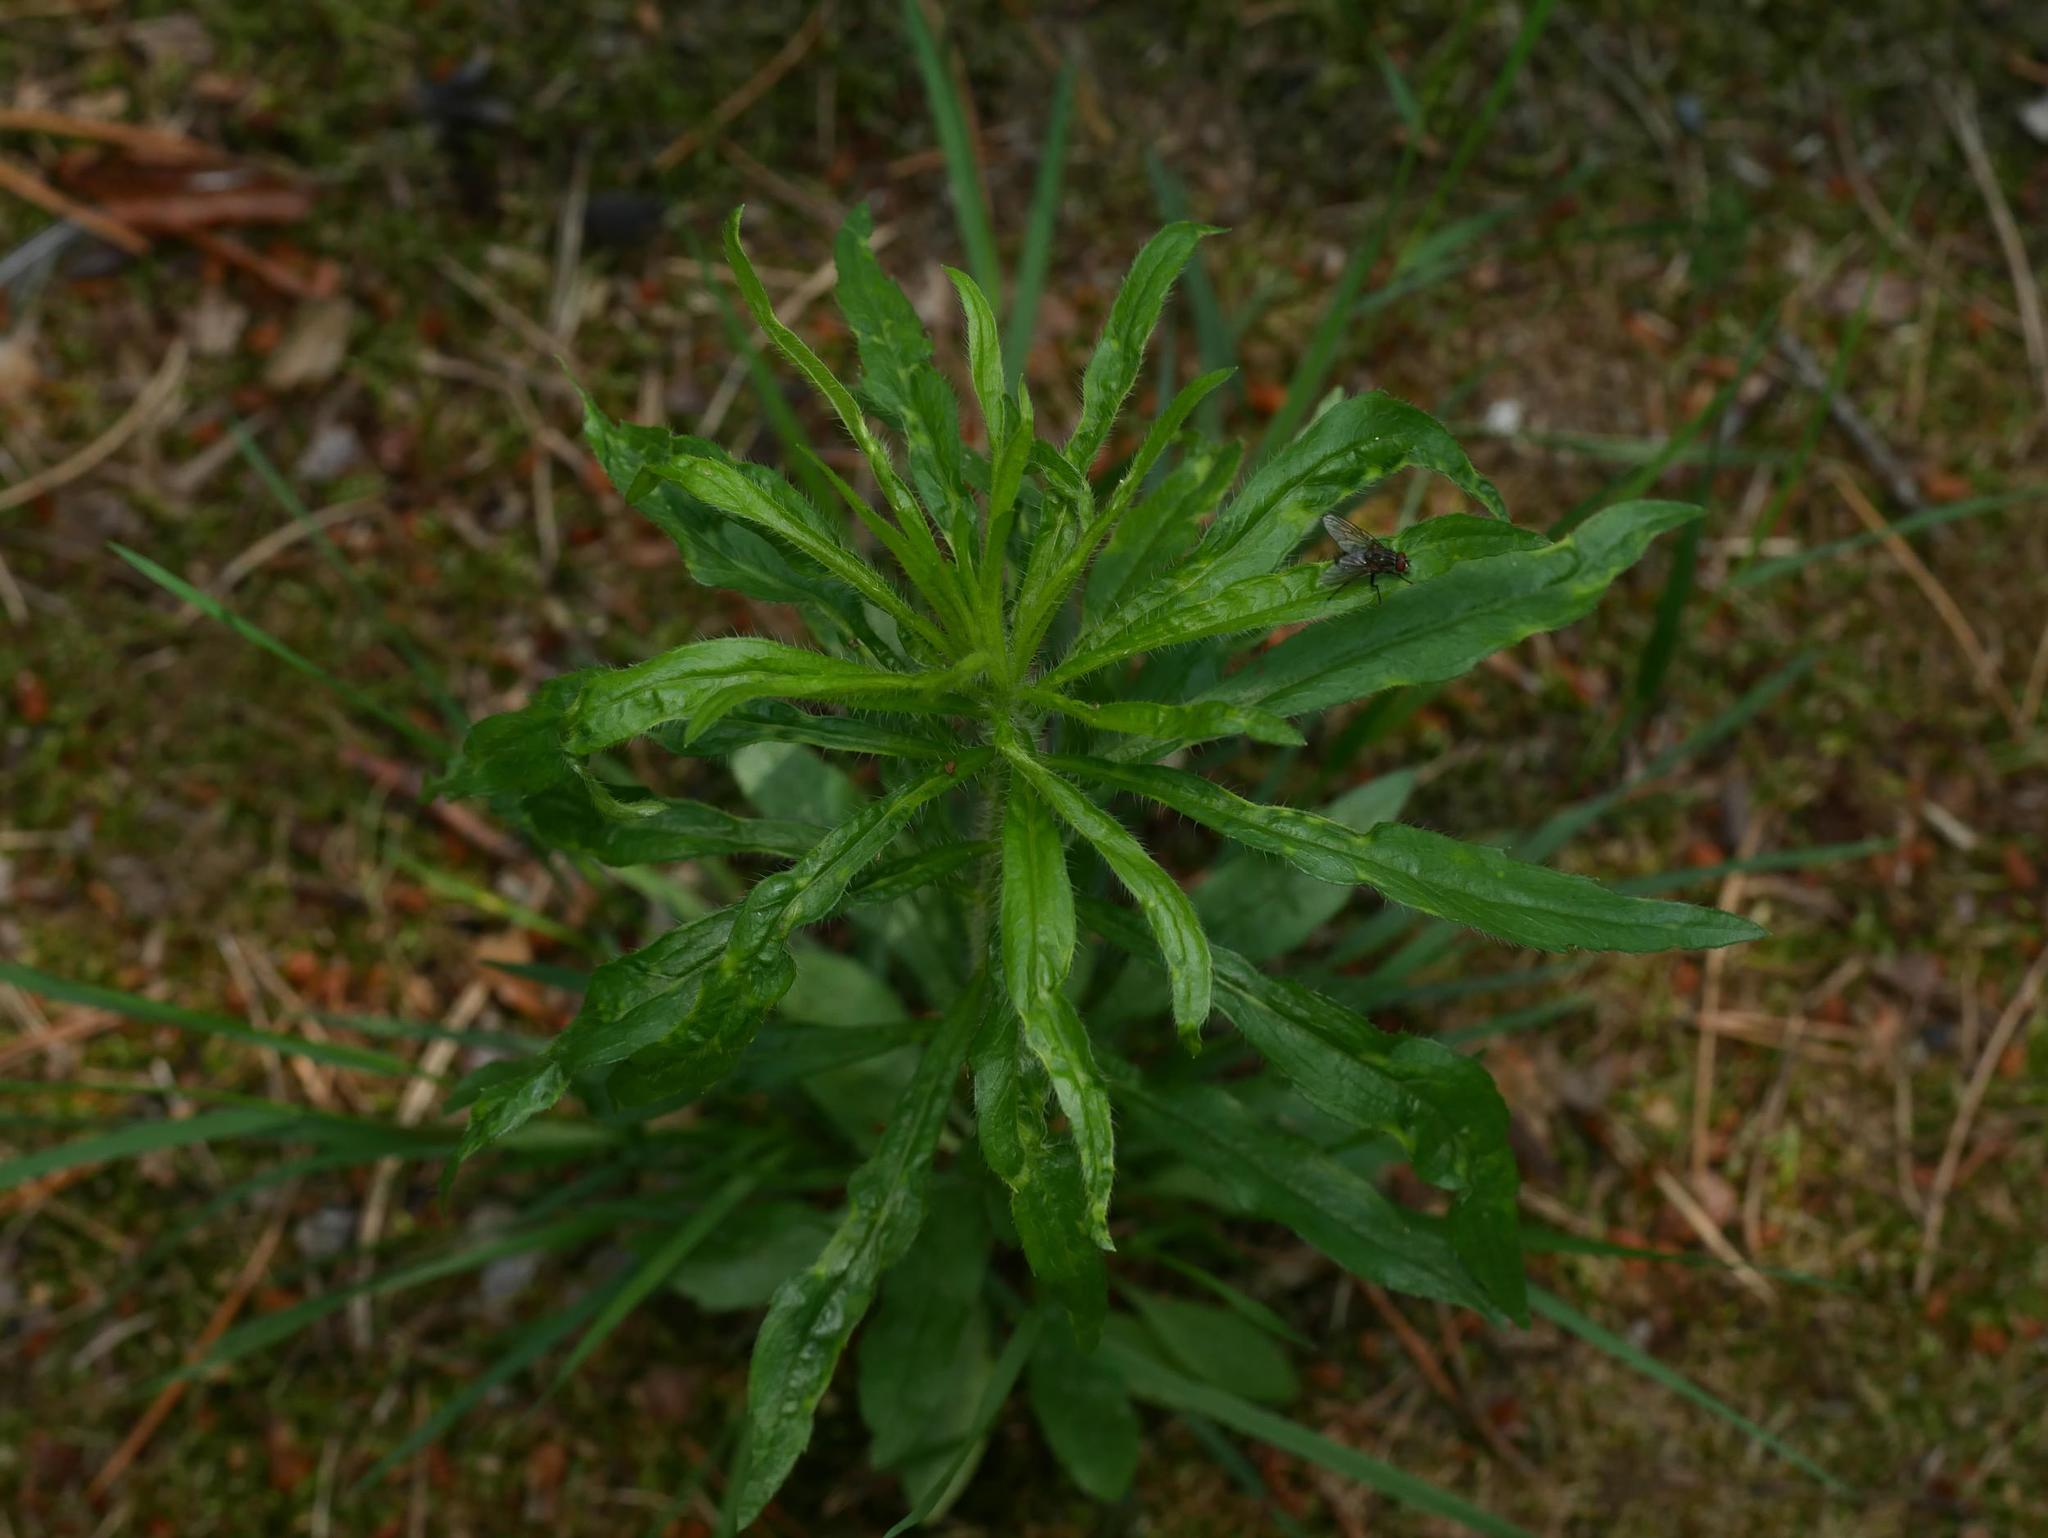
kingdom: Plantae
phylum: Tracheophyta
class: Magnoliopsida
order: Asterales
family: Asteraceae
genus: Erigeron
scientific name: Erigeron canadensis
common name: Canadian fleabane
